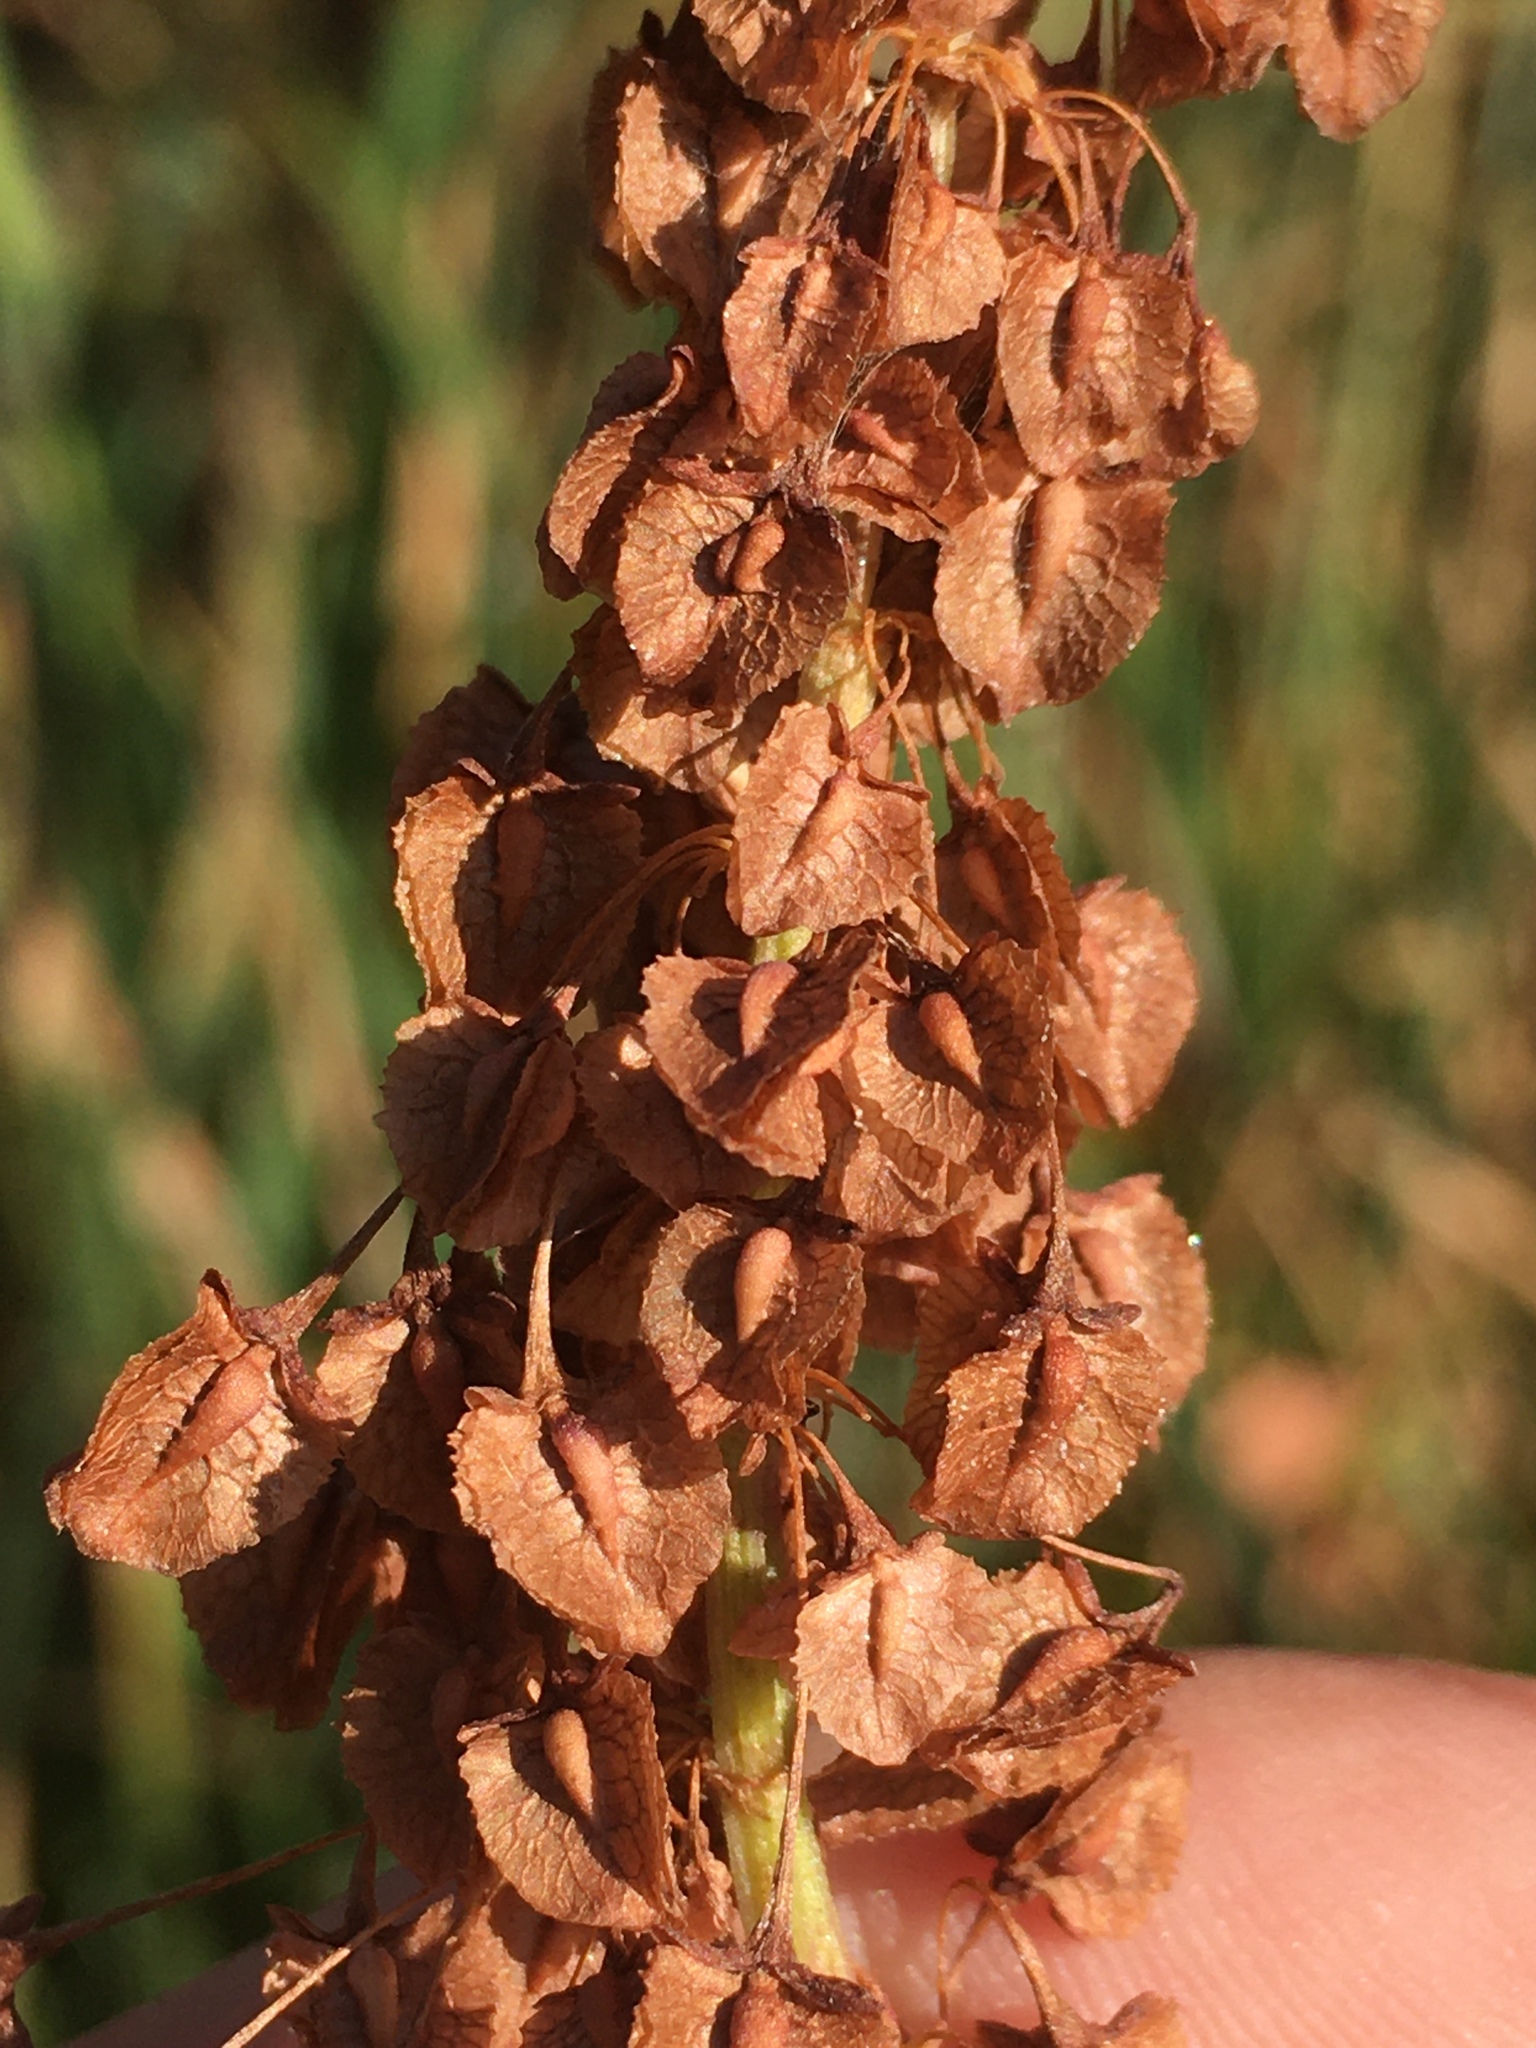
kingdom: Plantae
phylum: Tracheophyta
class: Magnoliopsida
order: Caryophyllales
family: Polygonaceae
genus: Rumex
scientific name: Rumex britannica
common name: British dock
